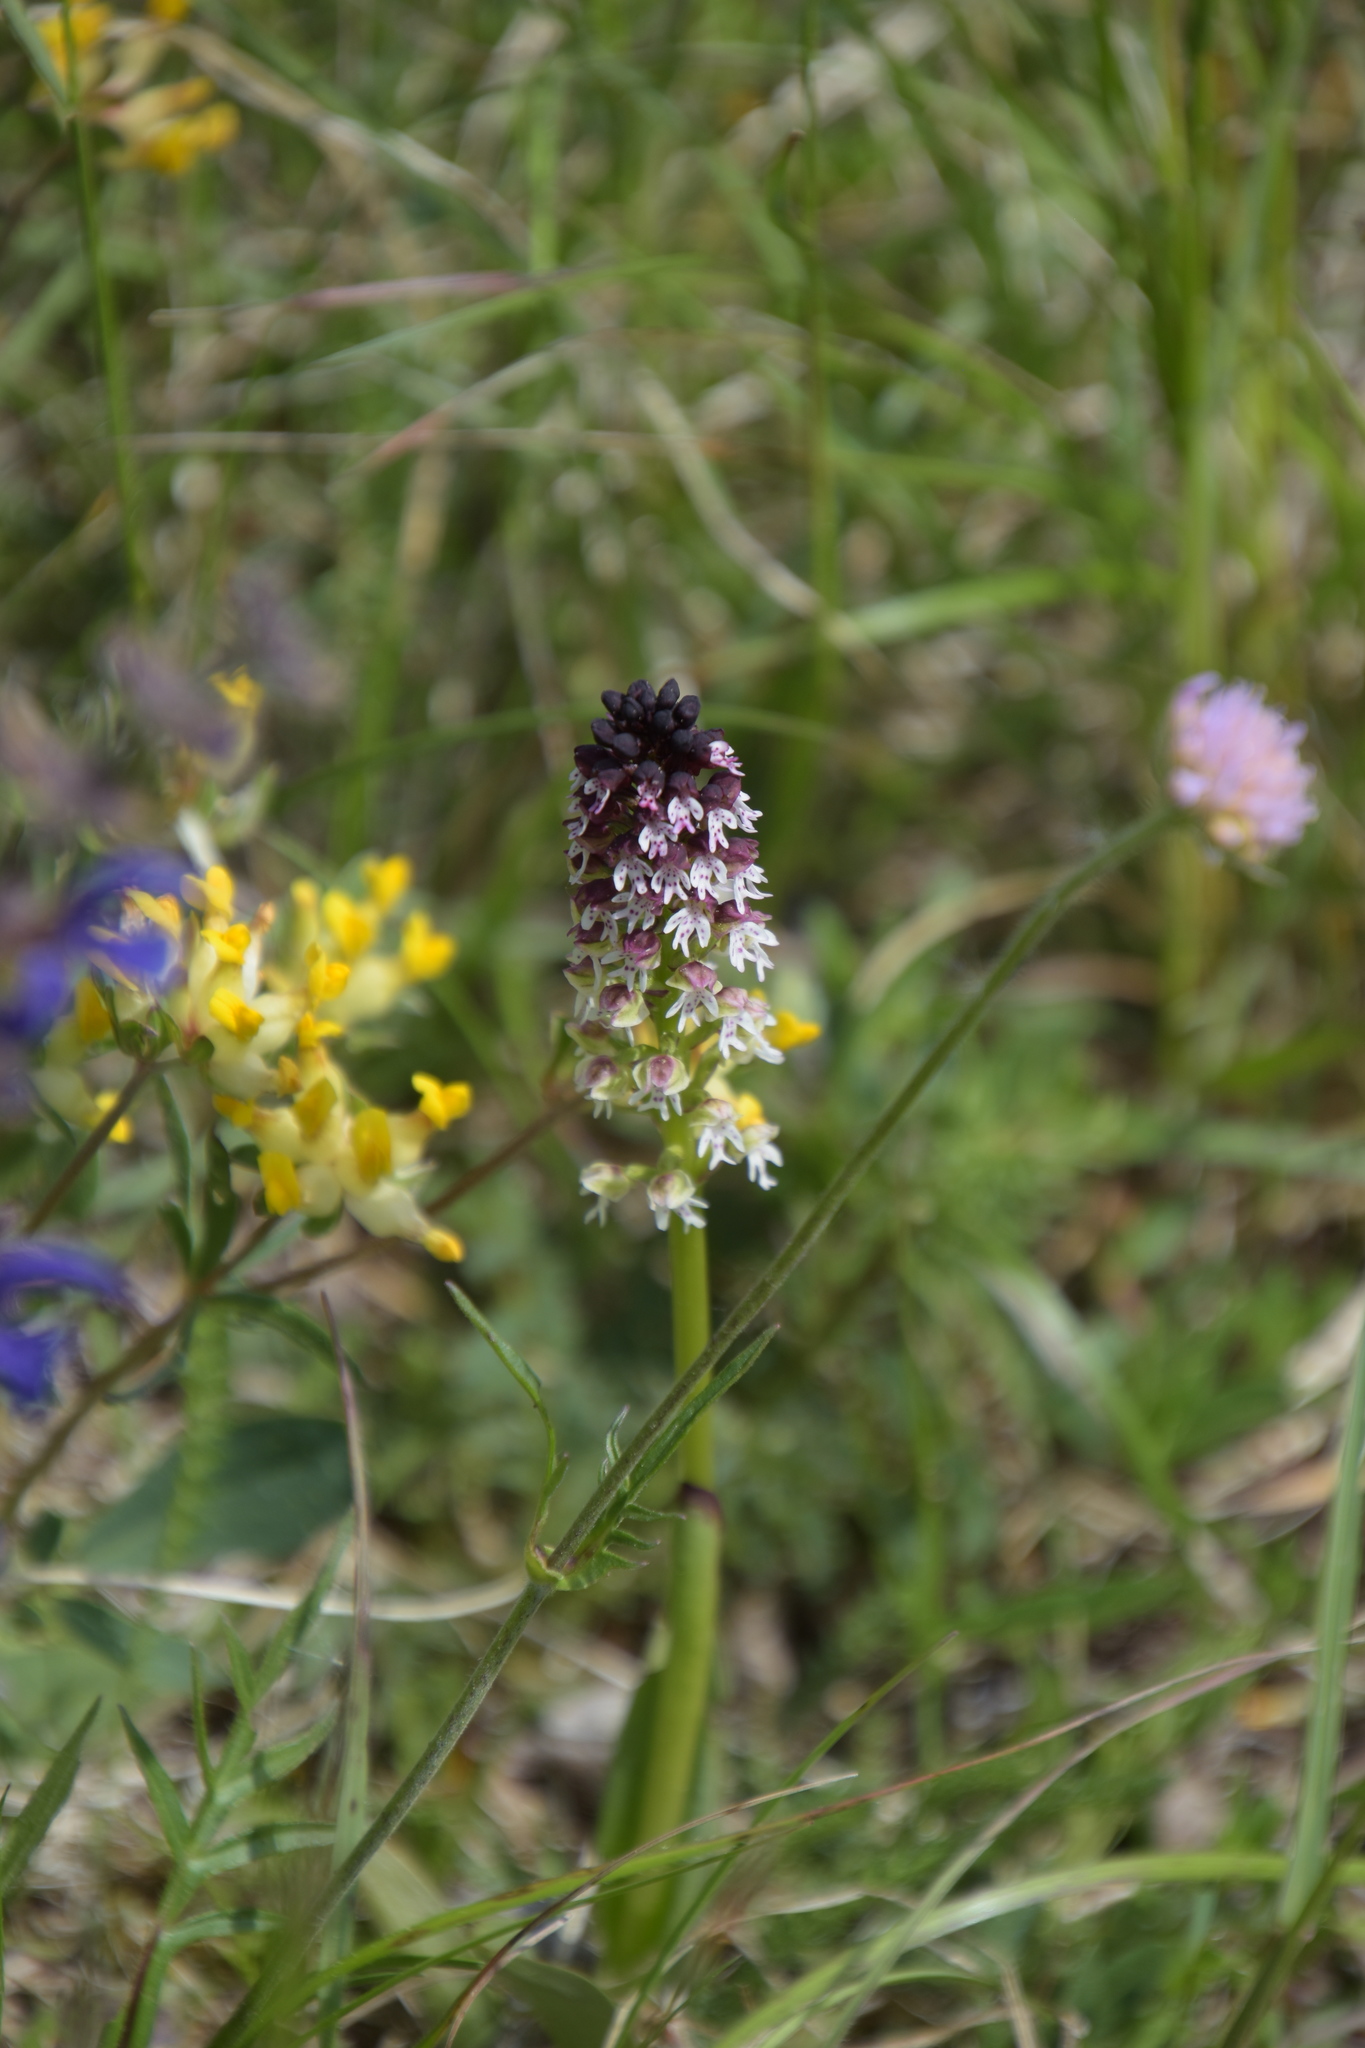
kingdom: Plantae
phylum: Tracheophyta
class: Liliopsida
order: Asparagales
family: Orchidaceae
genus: Neotinea
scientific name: Neotinea ustulata
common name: Burnt orchid
